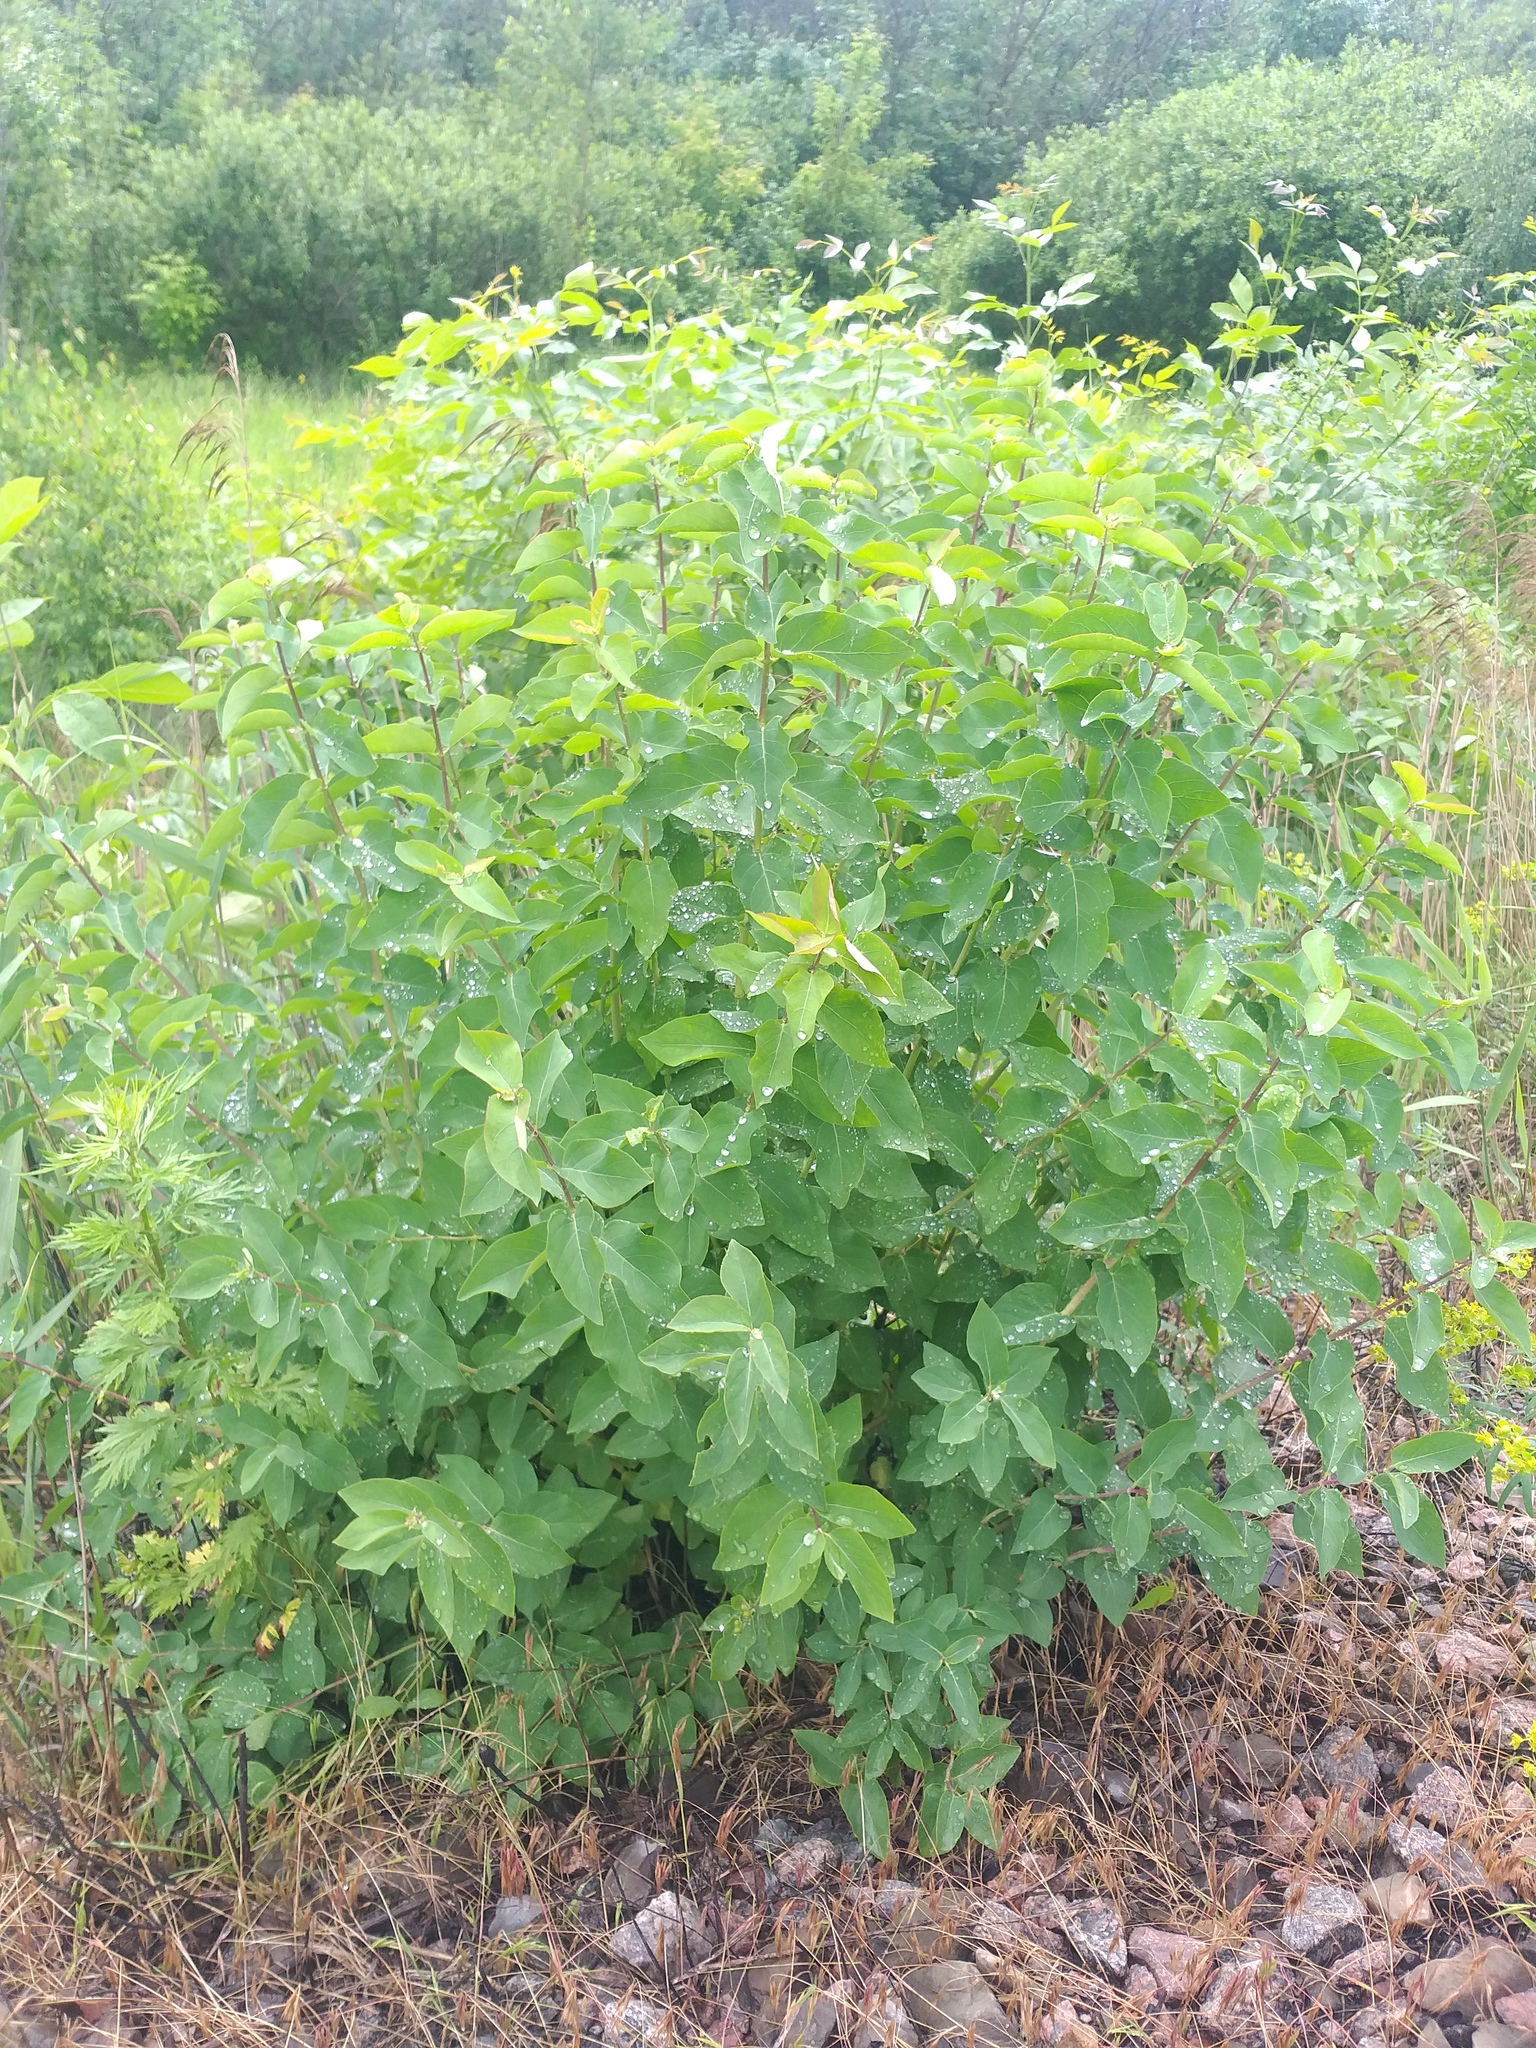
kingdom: Plantae
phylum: Tracheophyta
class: Magnoliopsida
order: Dipsacales
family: Caprifoliaceae
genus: Lonicera
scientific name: Lonicera tatarica
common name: Tatarian honeysuckle
